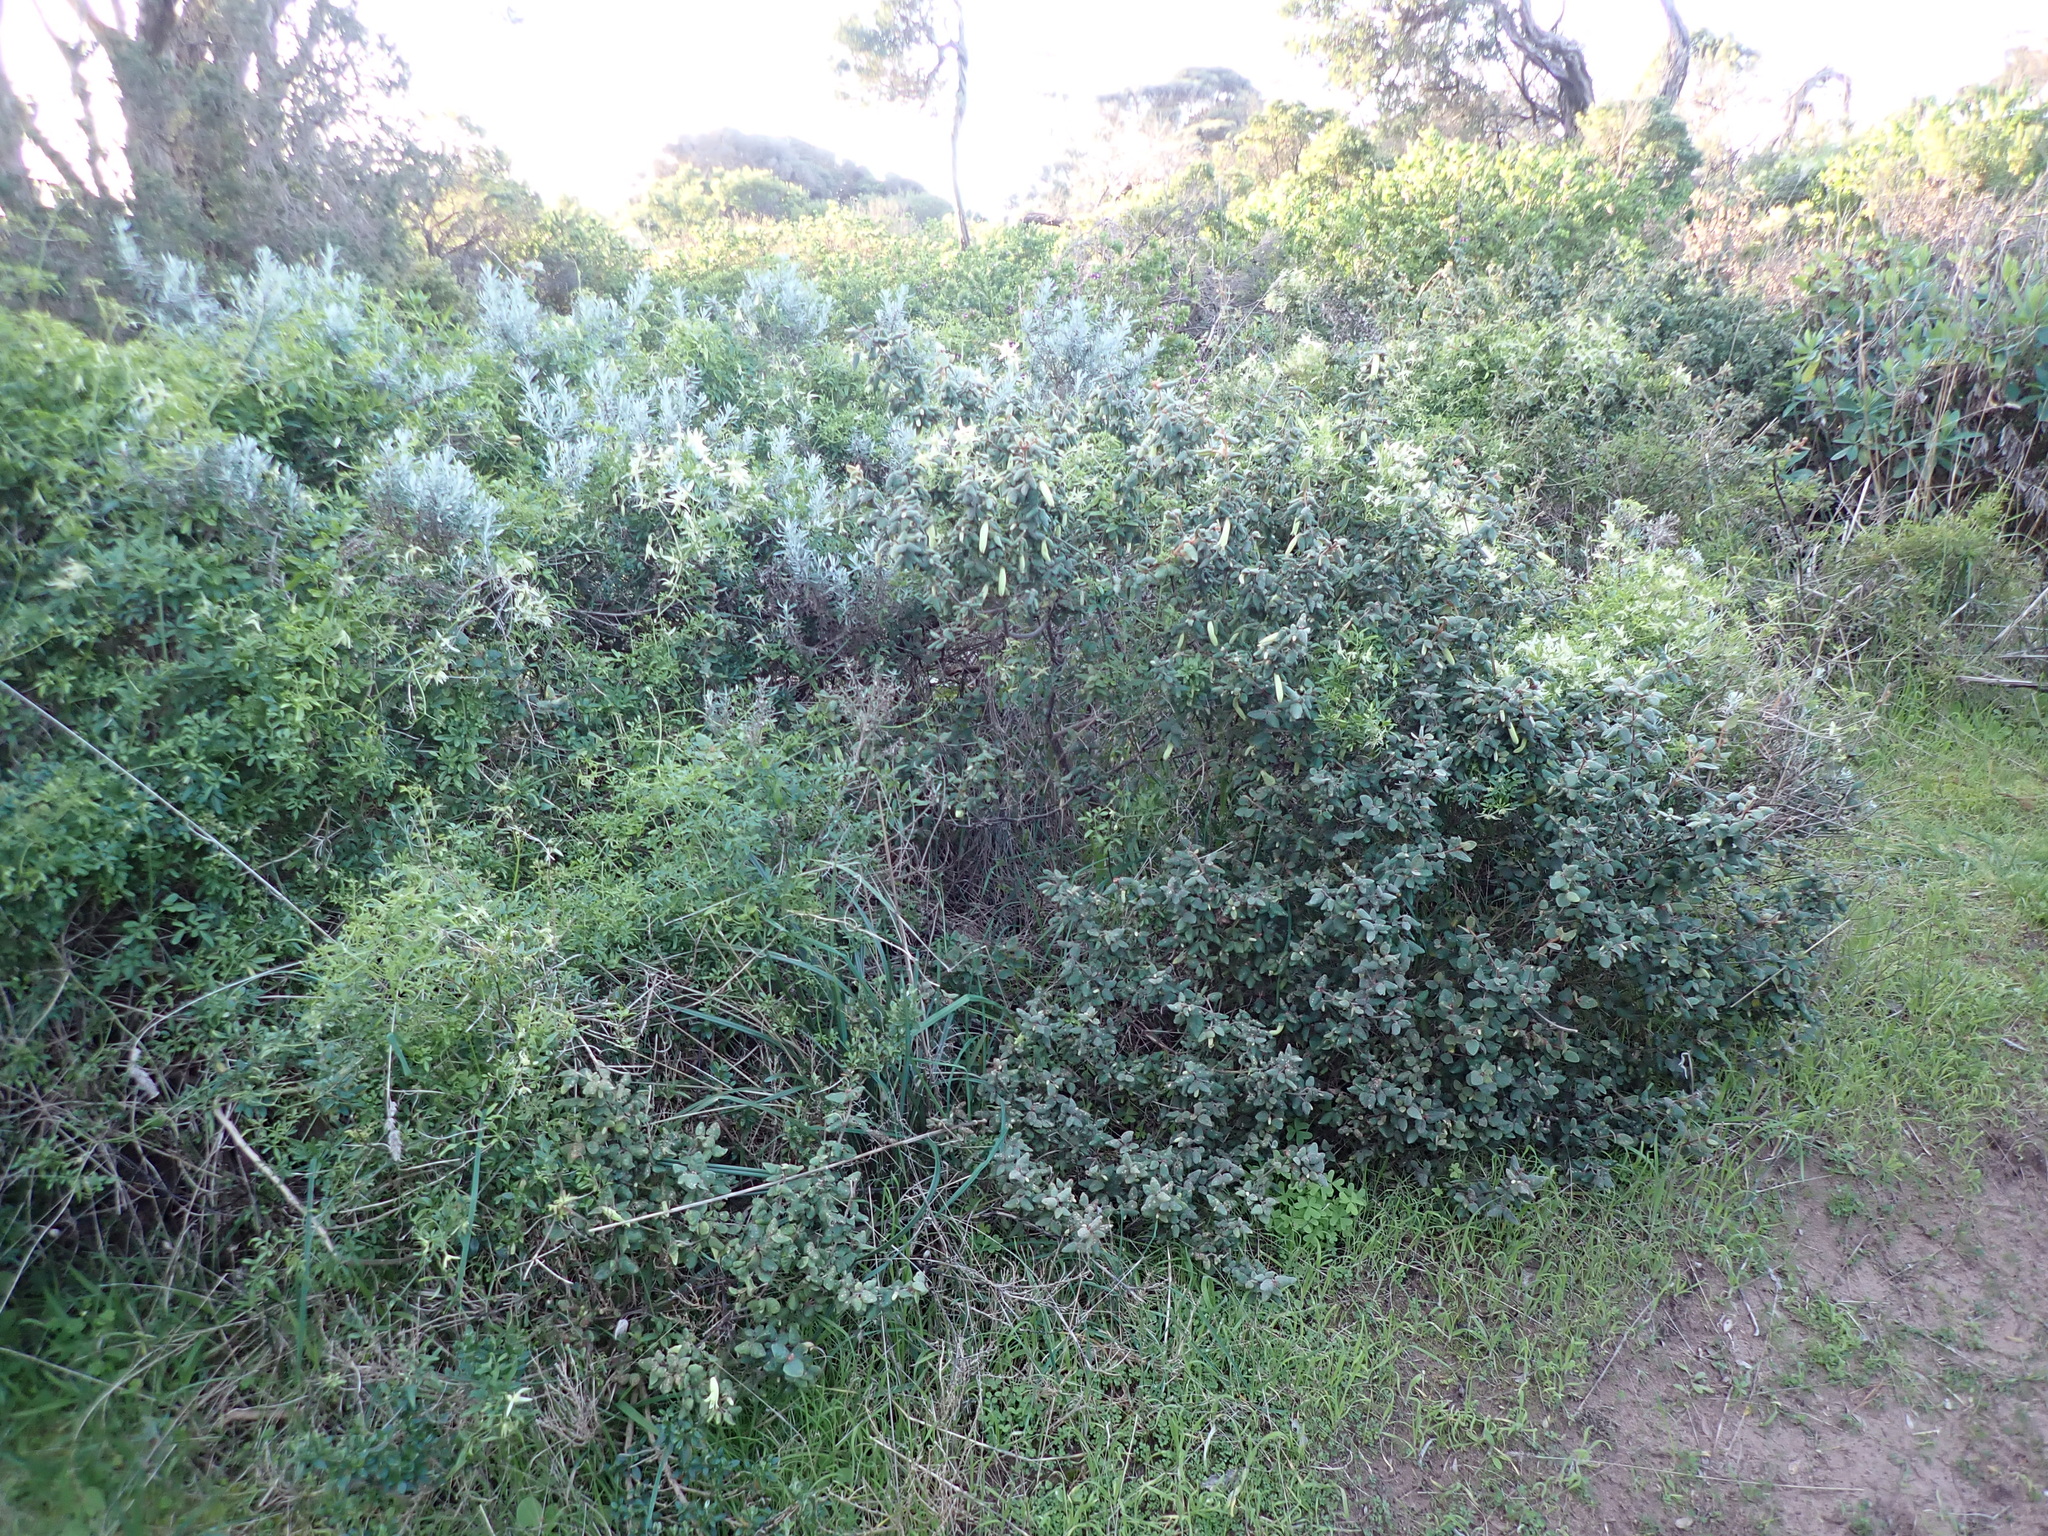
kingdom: Plantae
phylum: Tracheophyta
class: Magnoliopsida
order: Sapindales
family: Rutaceae
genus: Correa
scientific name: Correa reflexa
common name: Common correa
